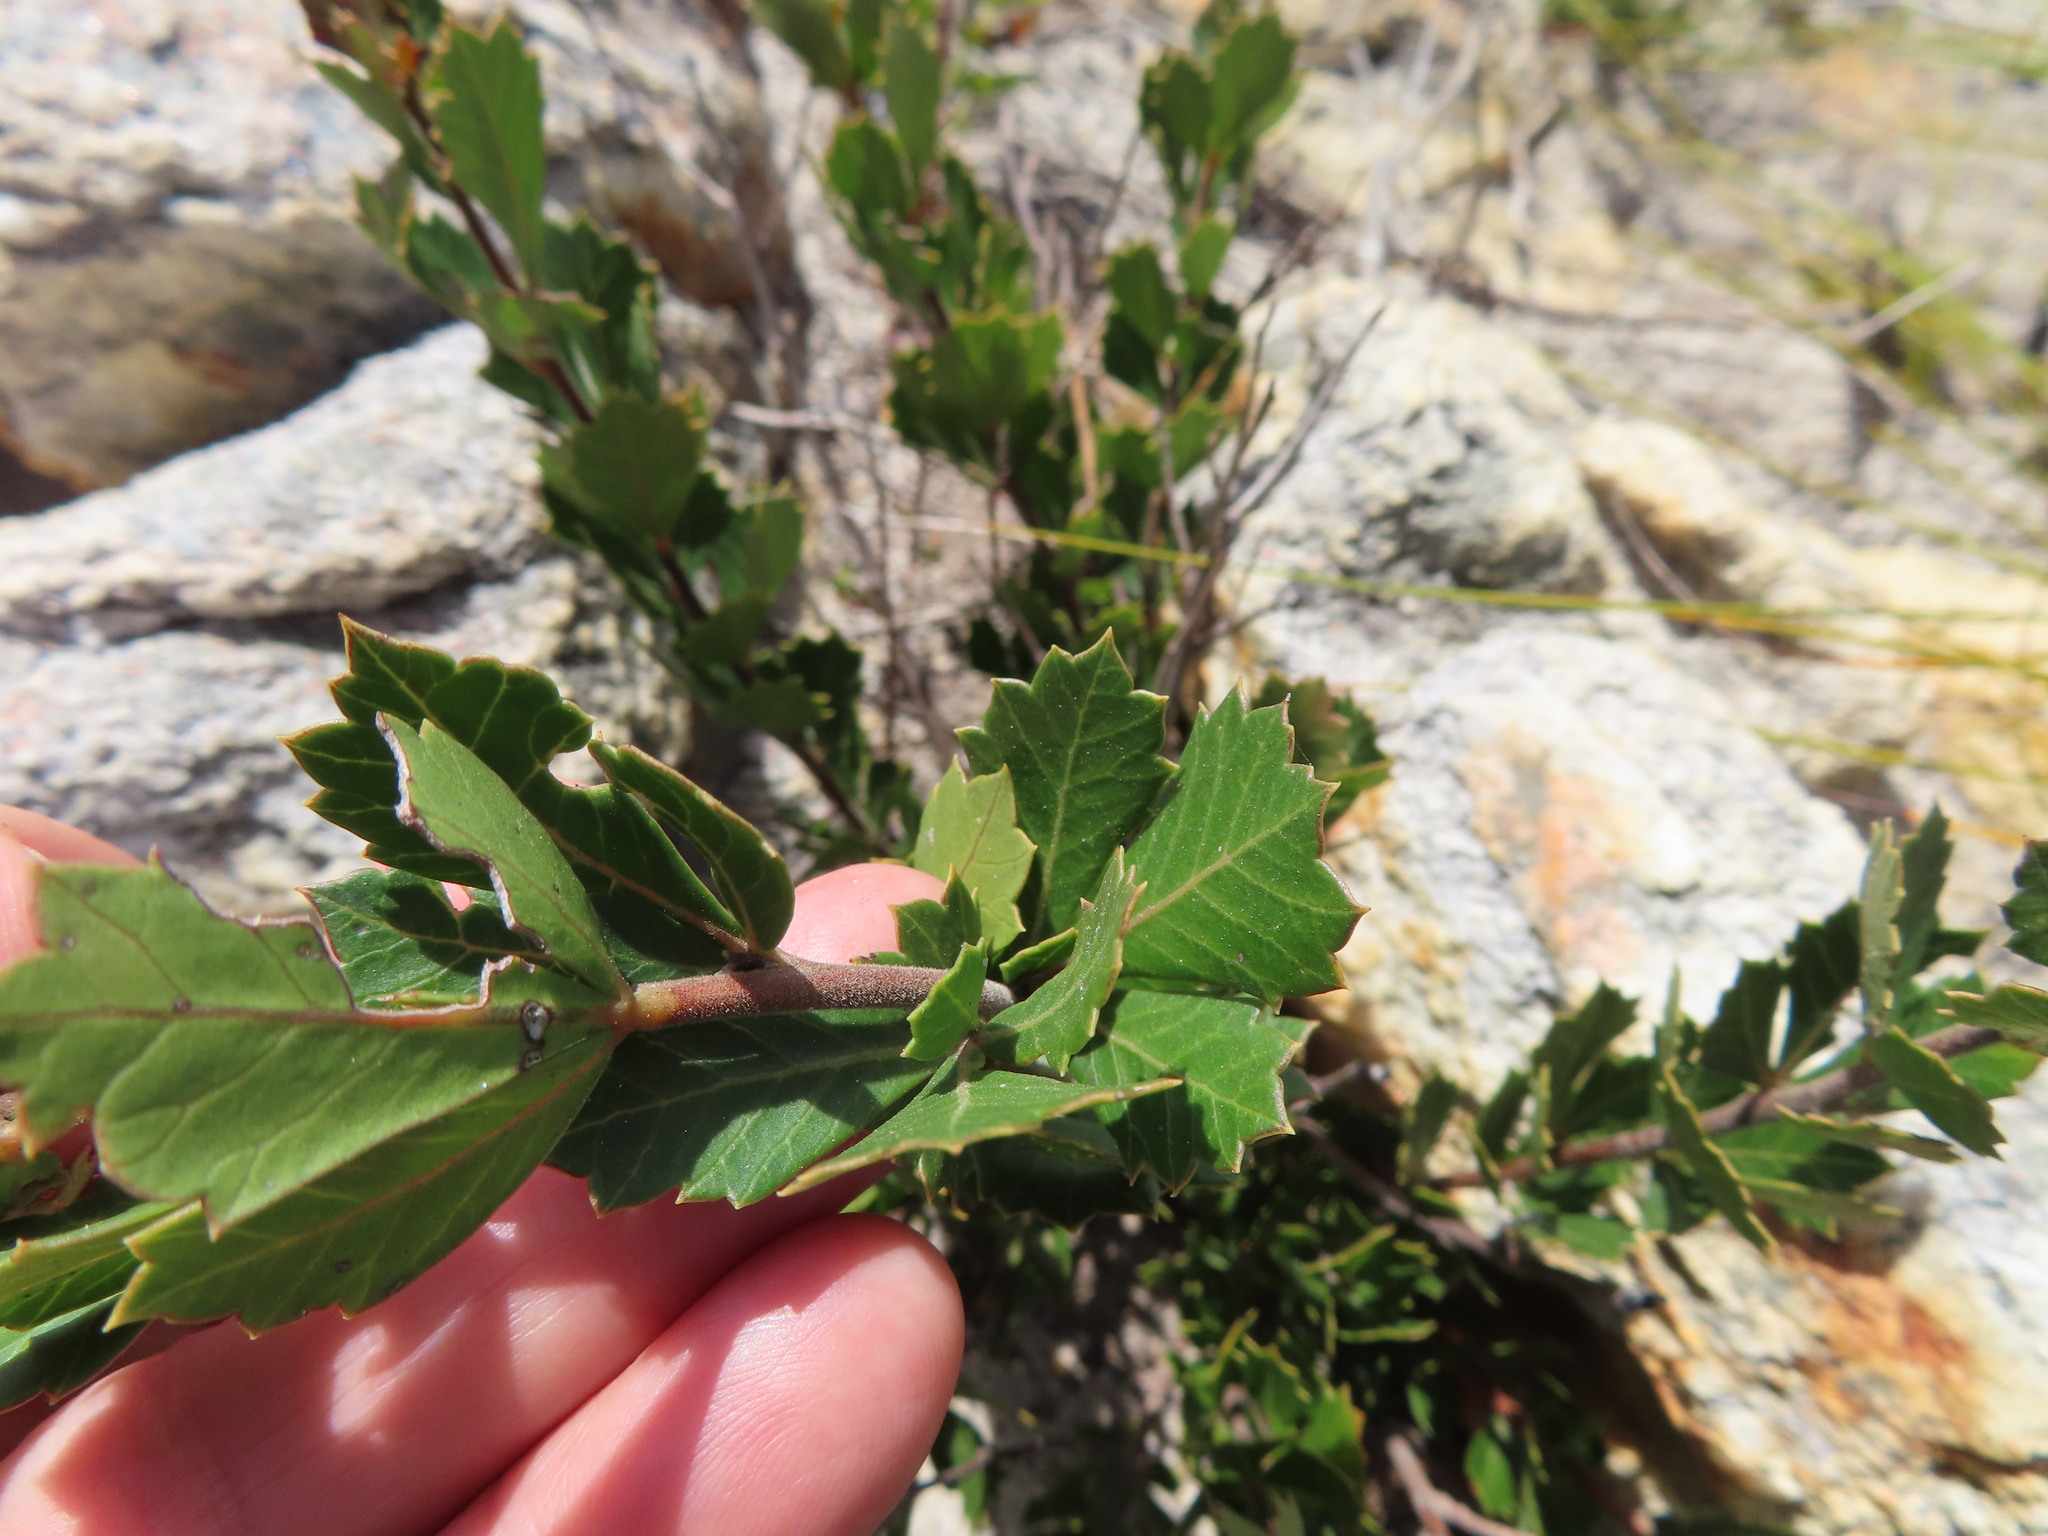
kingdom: Plantae
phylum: Tracheophyta
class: Magnoliopsida
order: Sapindales
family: Anacardiaceae
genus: Searsia
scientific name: Searsia cuneifolia
